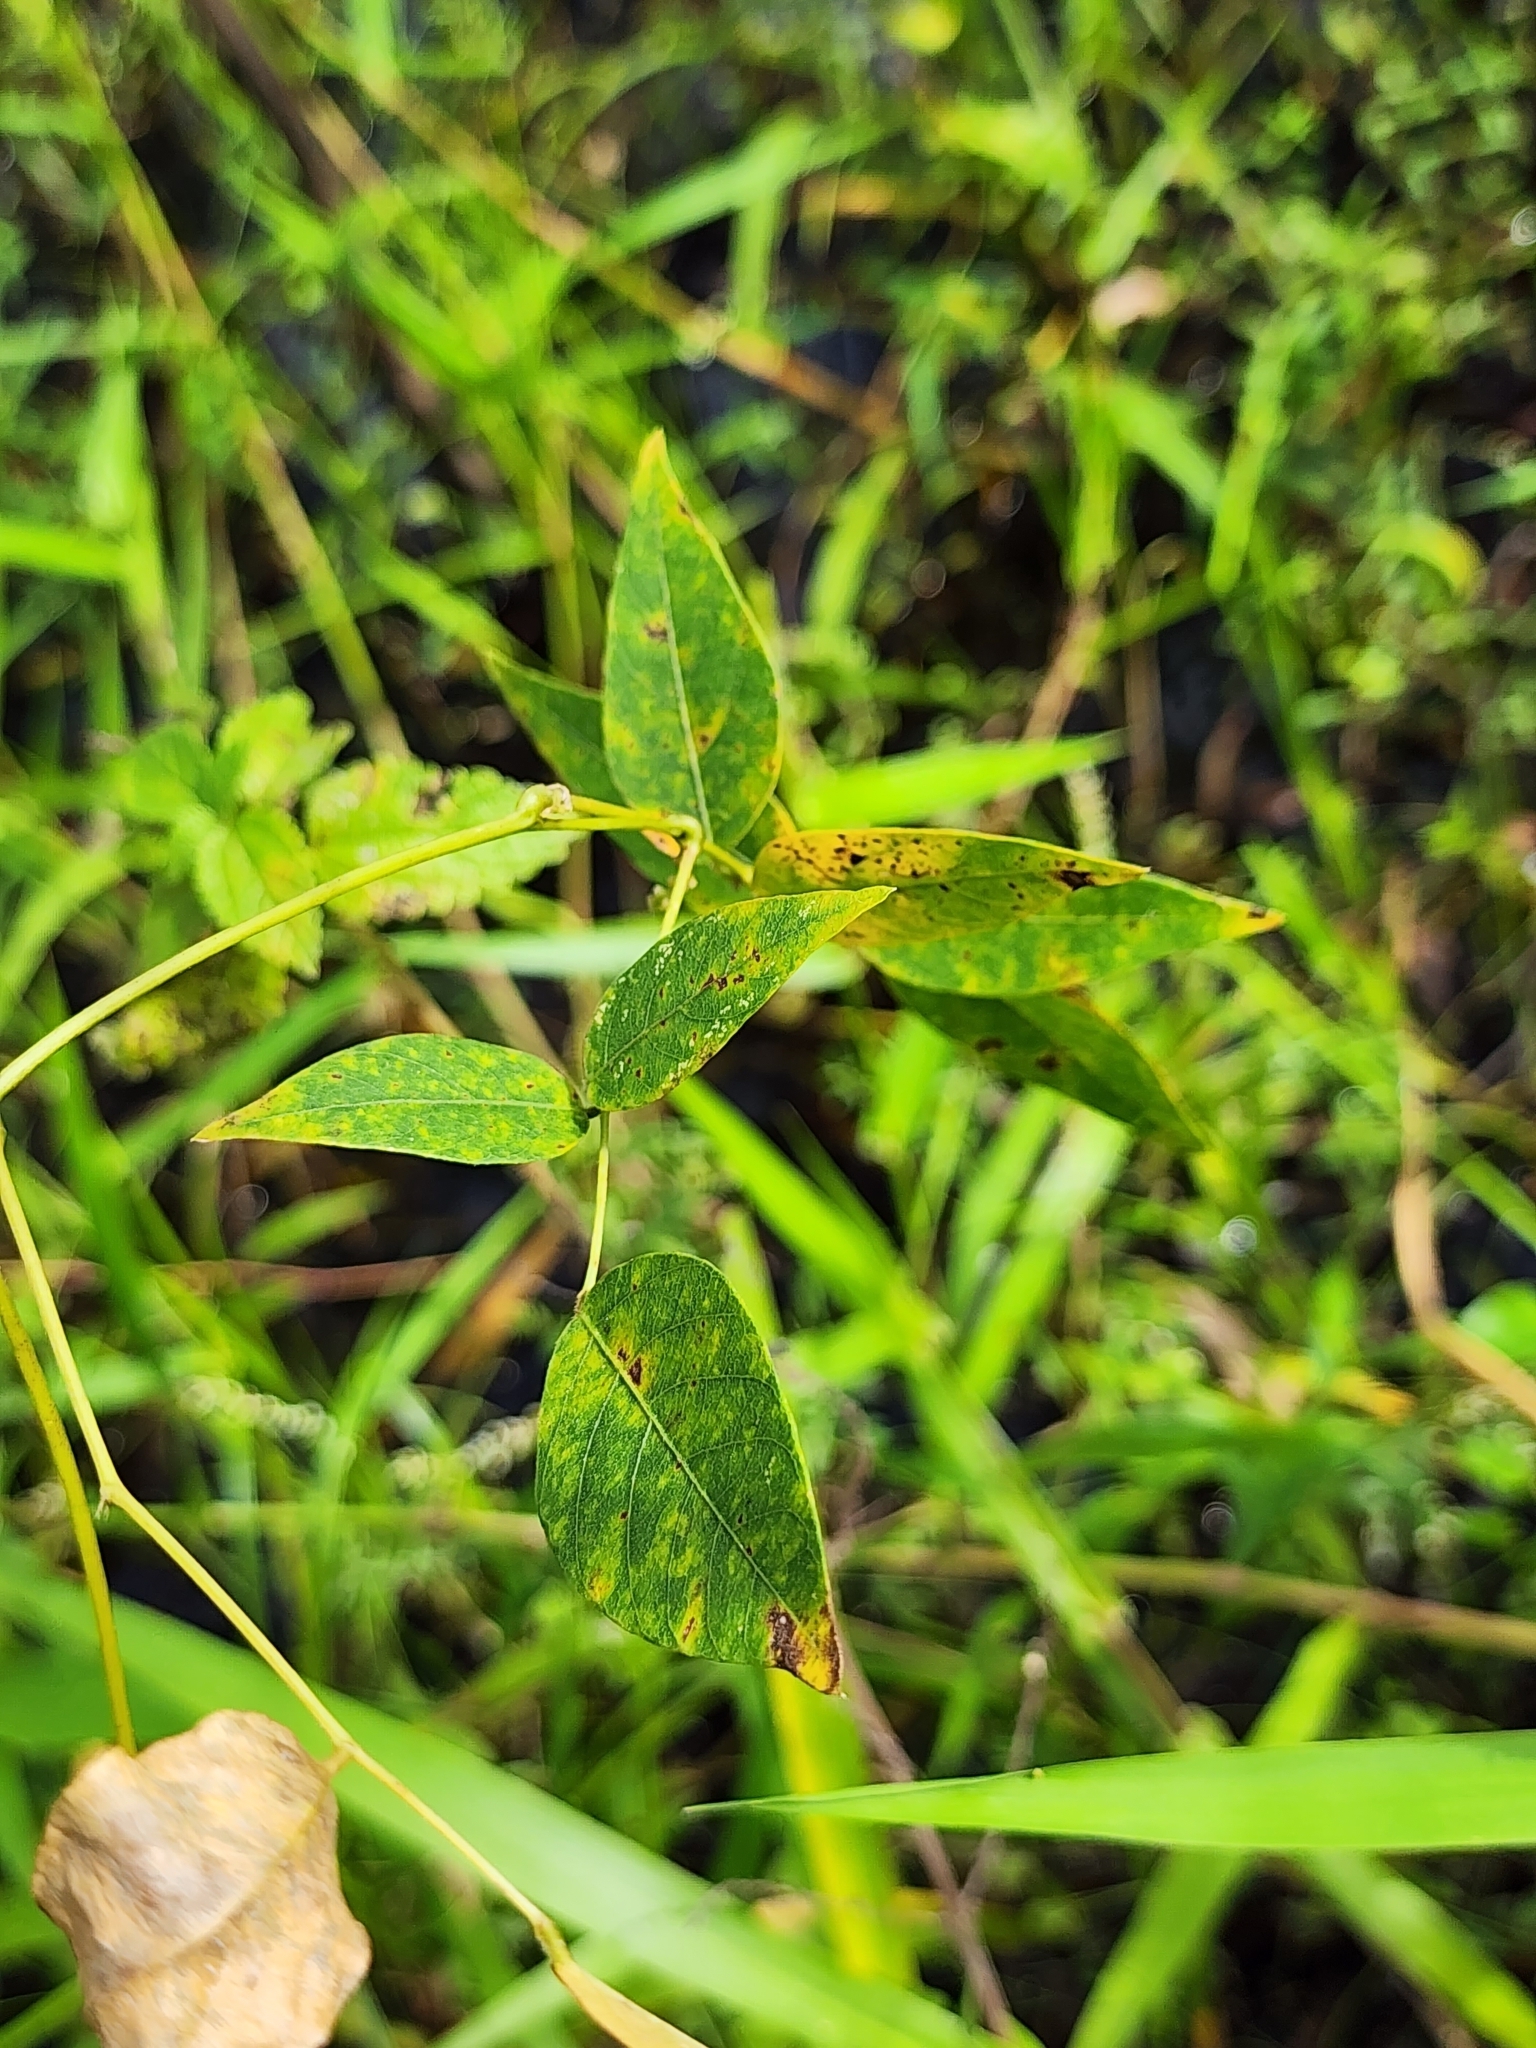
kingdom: Plantae
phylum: Tracheophyta
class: Magnoliopsida
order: Fabales
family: Fabaceae
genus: Apios
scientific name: Apios americana
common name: American potato-bean
